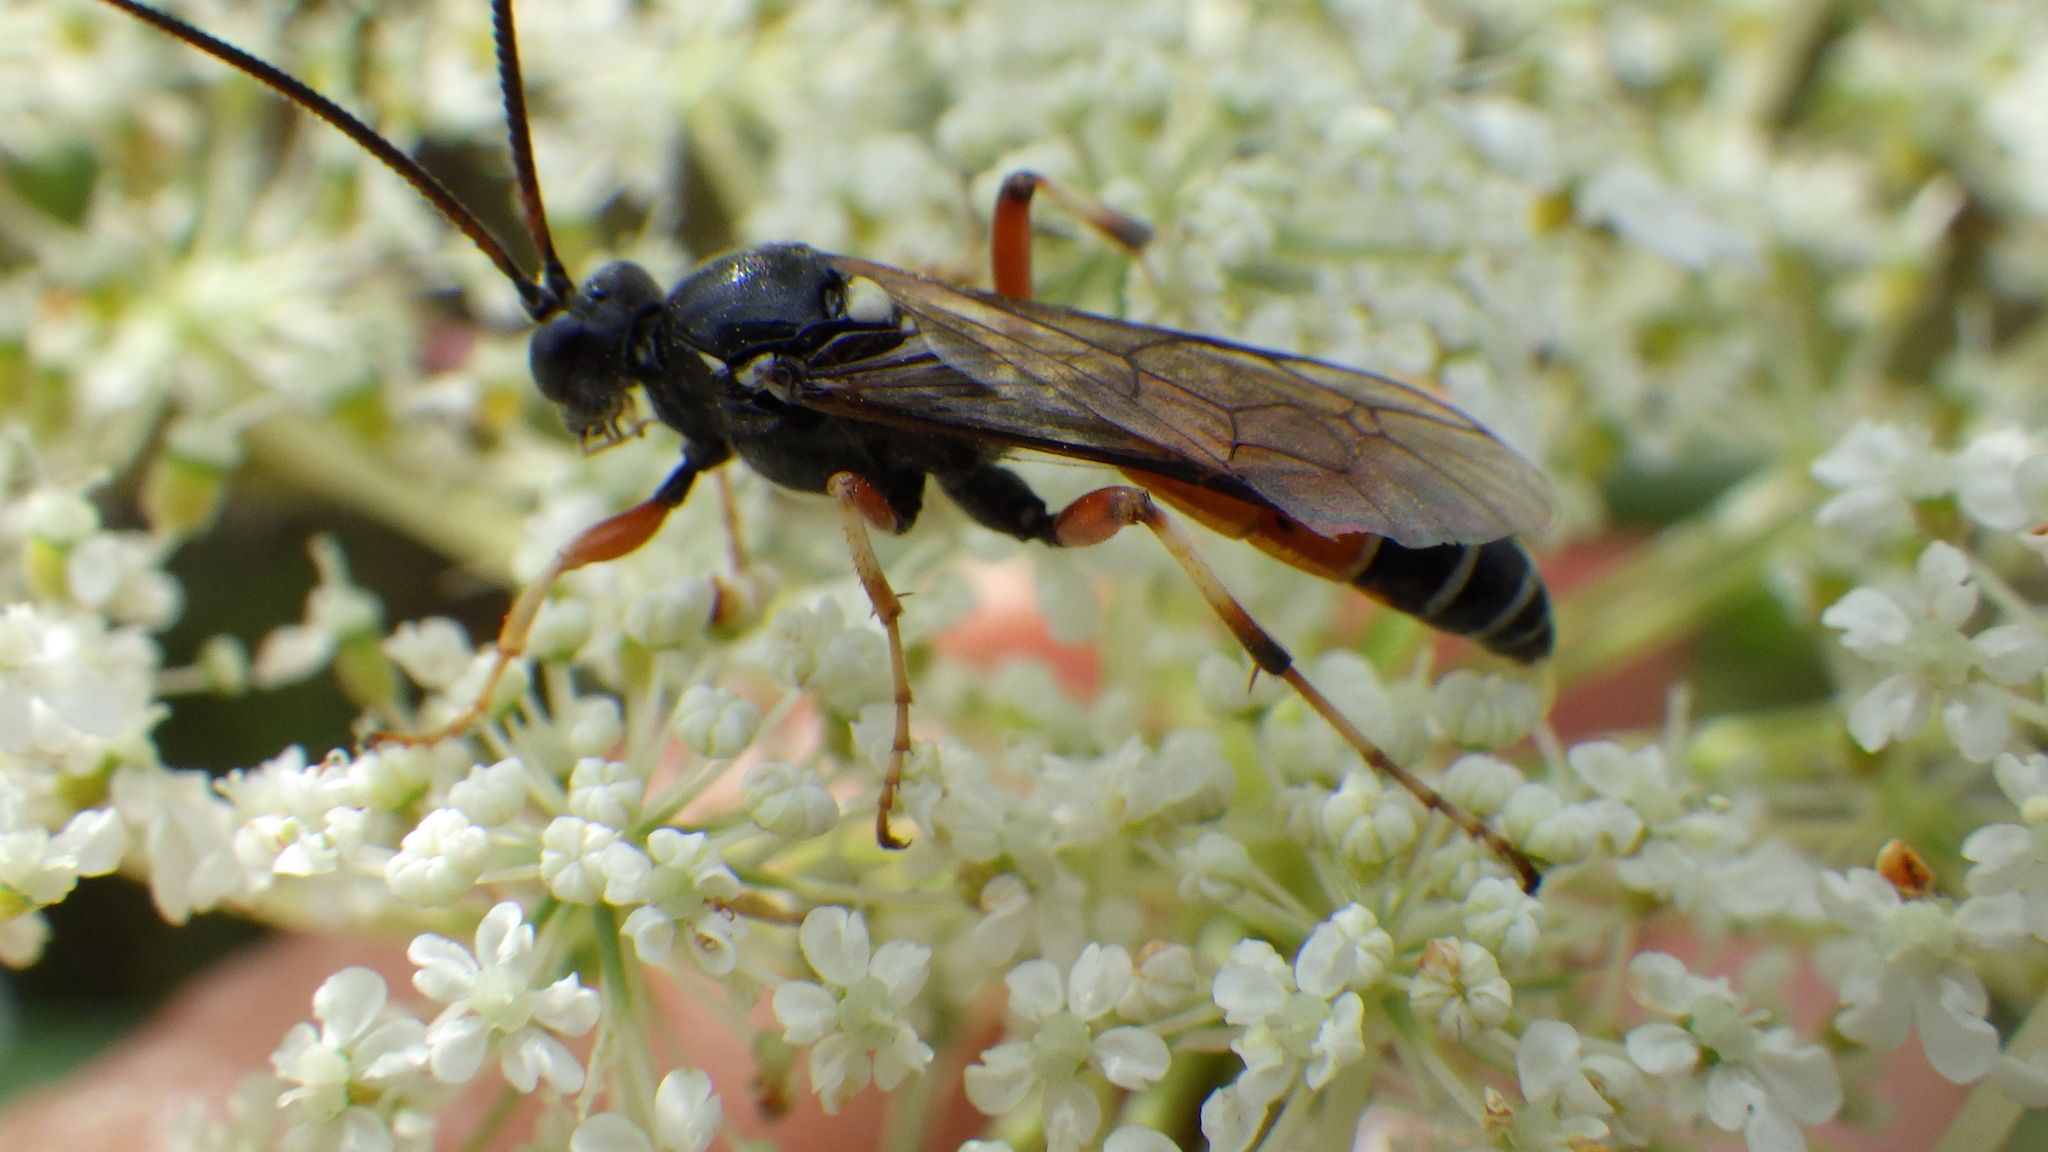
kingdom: Animalia
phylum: Arthropoda
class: Insecta
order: Hymenoptera
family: Ichneumonidae
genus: Ctenichneumon
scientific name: Ctenichneumon panzeri
